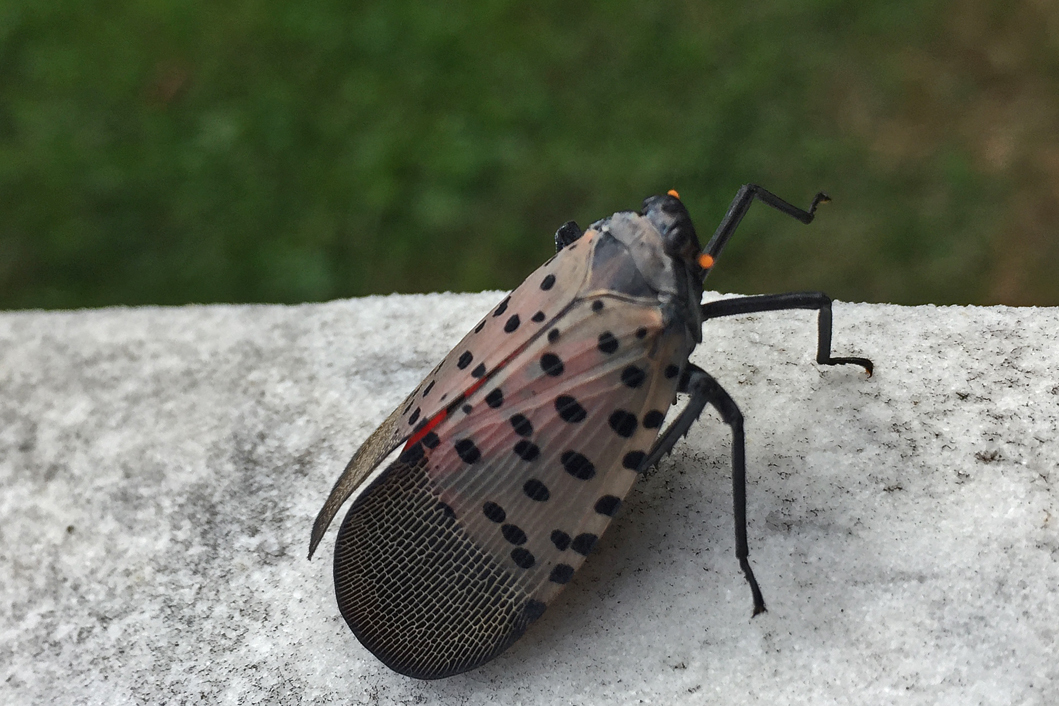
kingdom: Animalia
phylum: Arthropoda
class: Insecta
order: Hemiptera
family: Fulgoridae
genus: Lycorma
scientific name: Lycorma delicatula
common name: Spotted lanternfly
